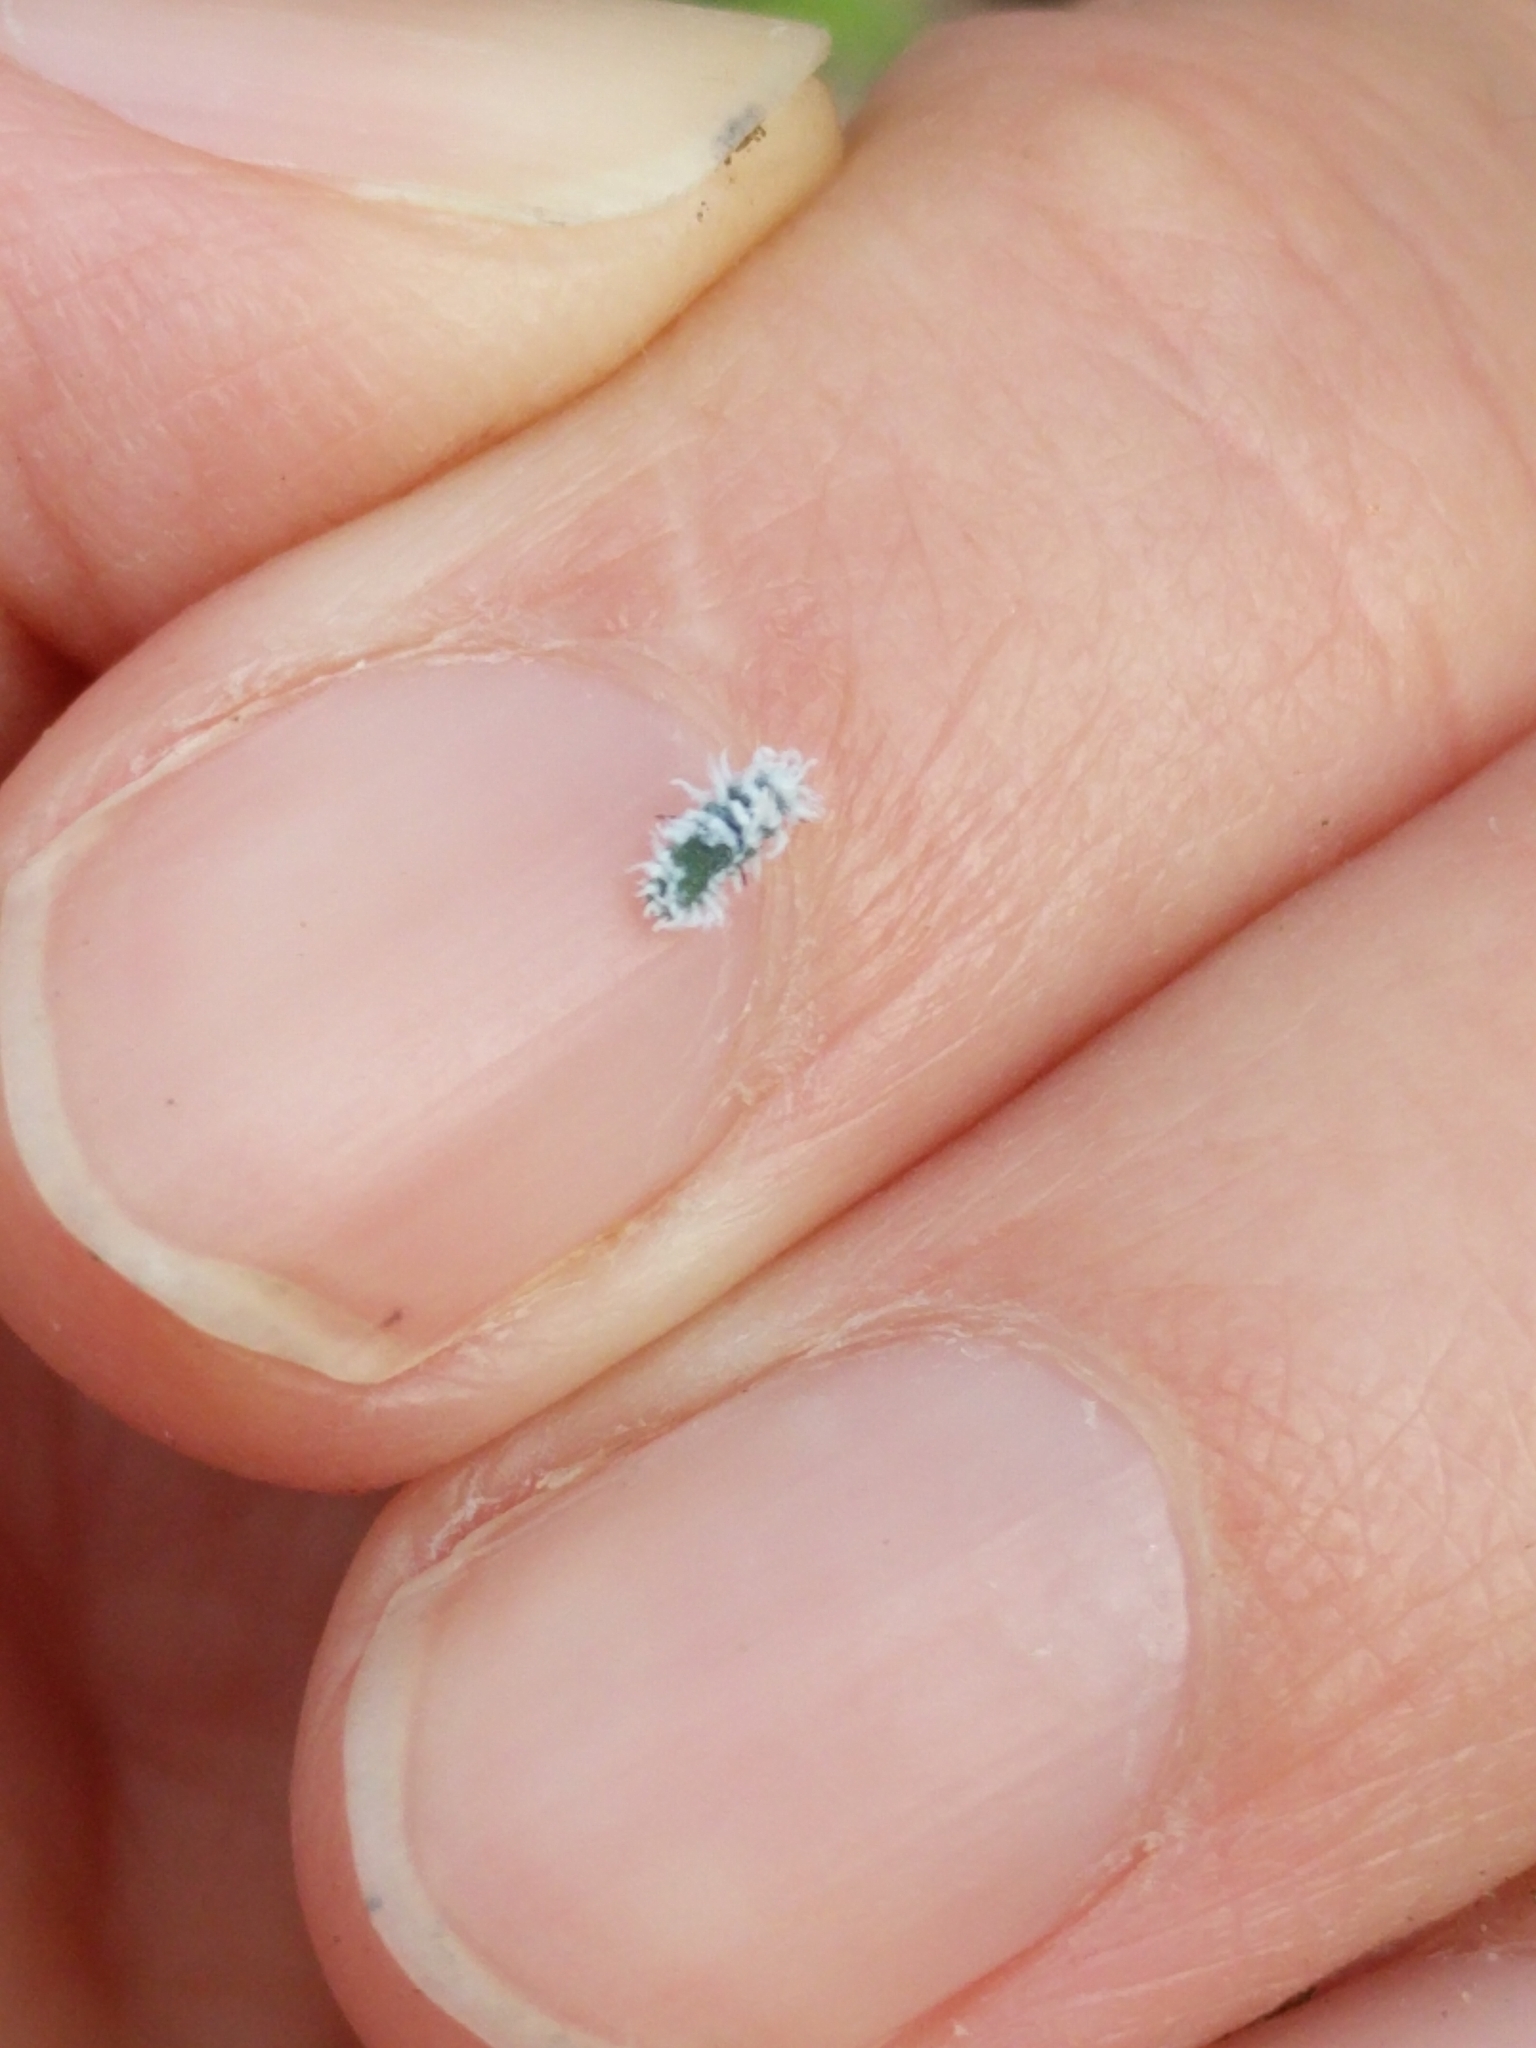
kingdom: Animalia
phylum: Arthropoda
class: Insecta
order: Coleoptera
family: Coccinellidae
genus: Cryptolaemus
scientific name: Cryptolaemus montrouzieri
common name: Mealybug destroyer
